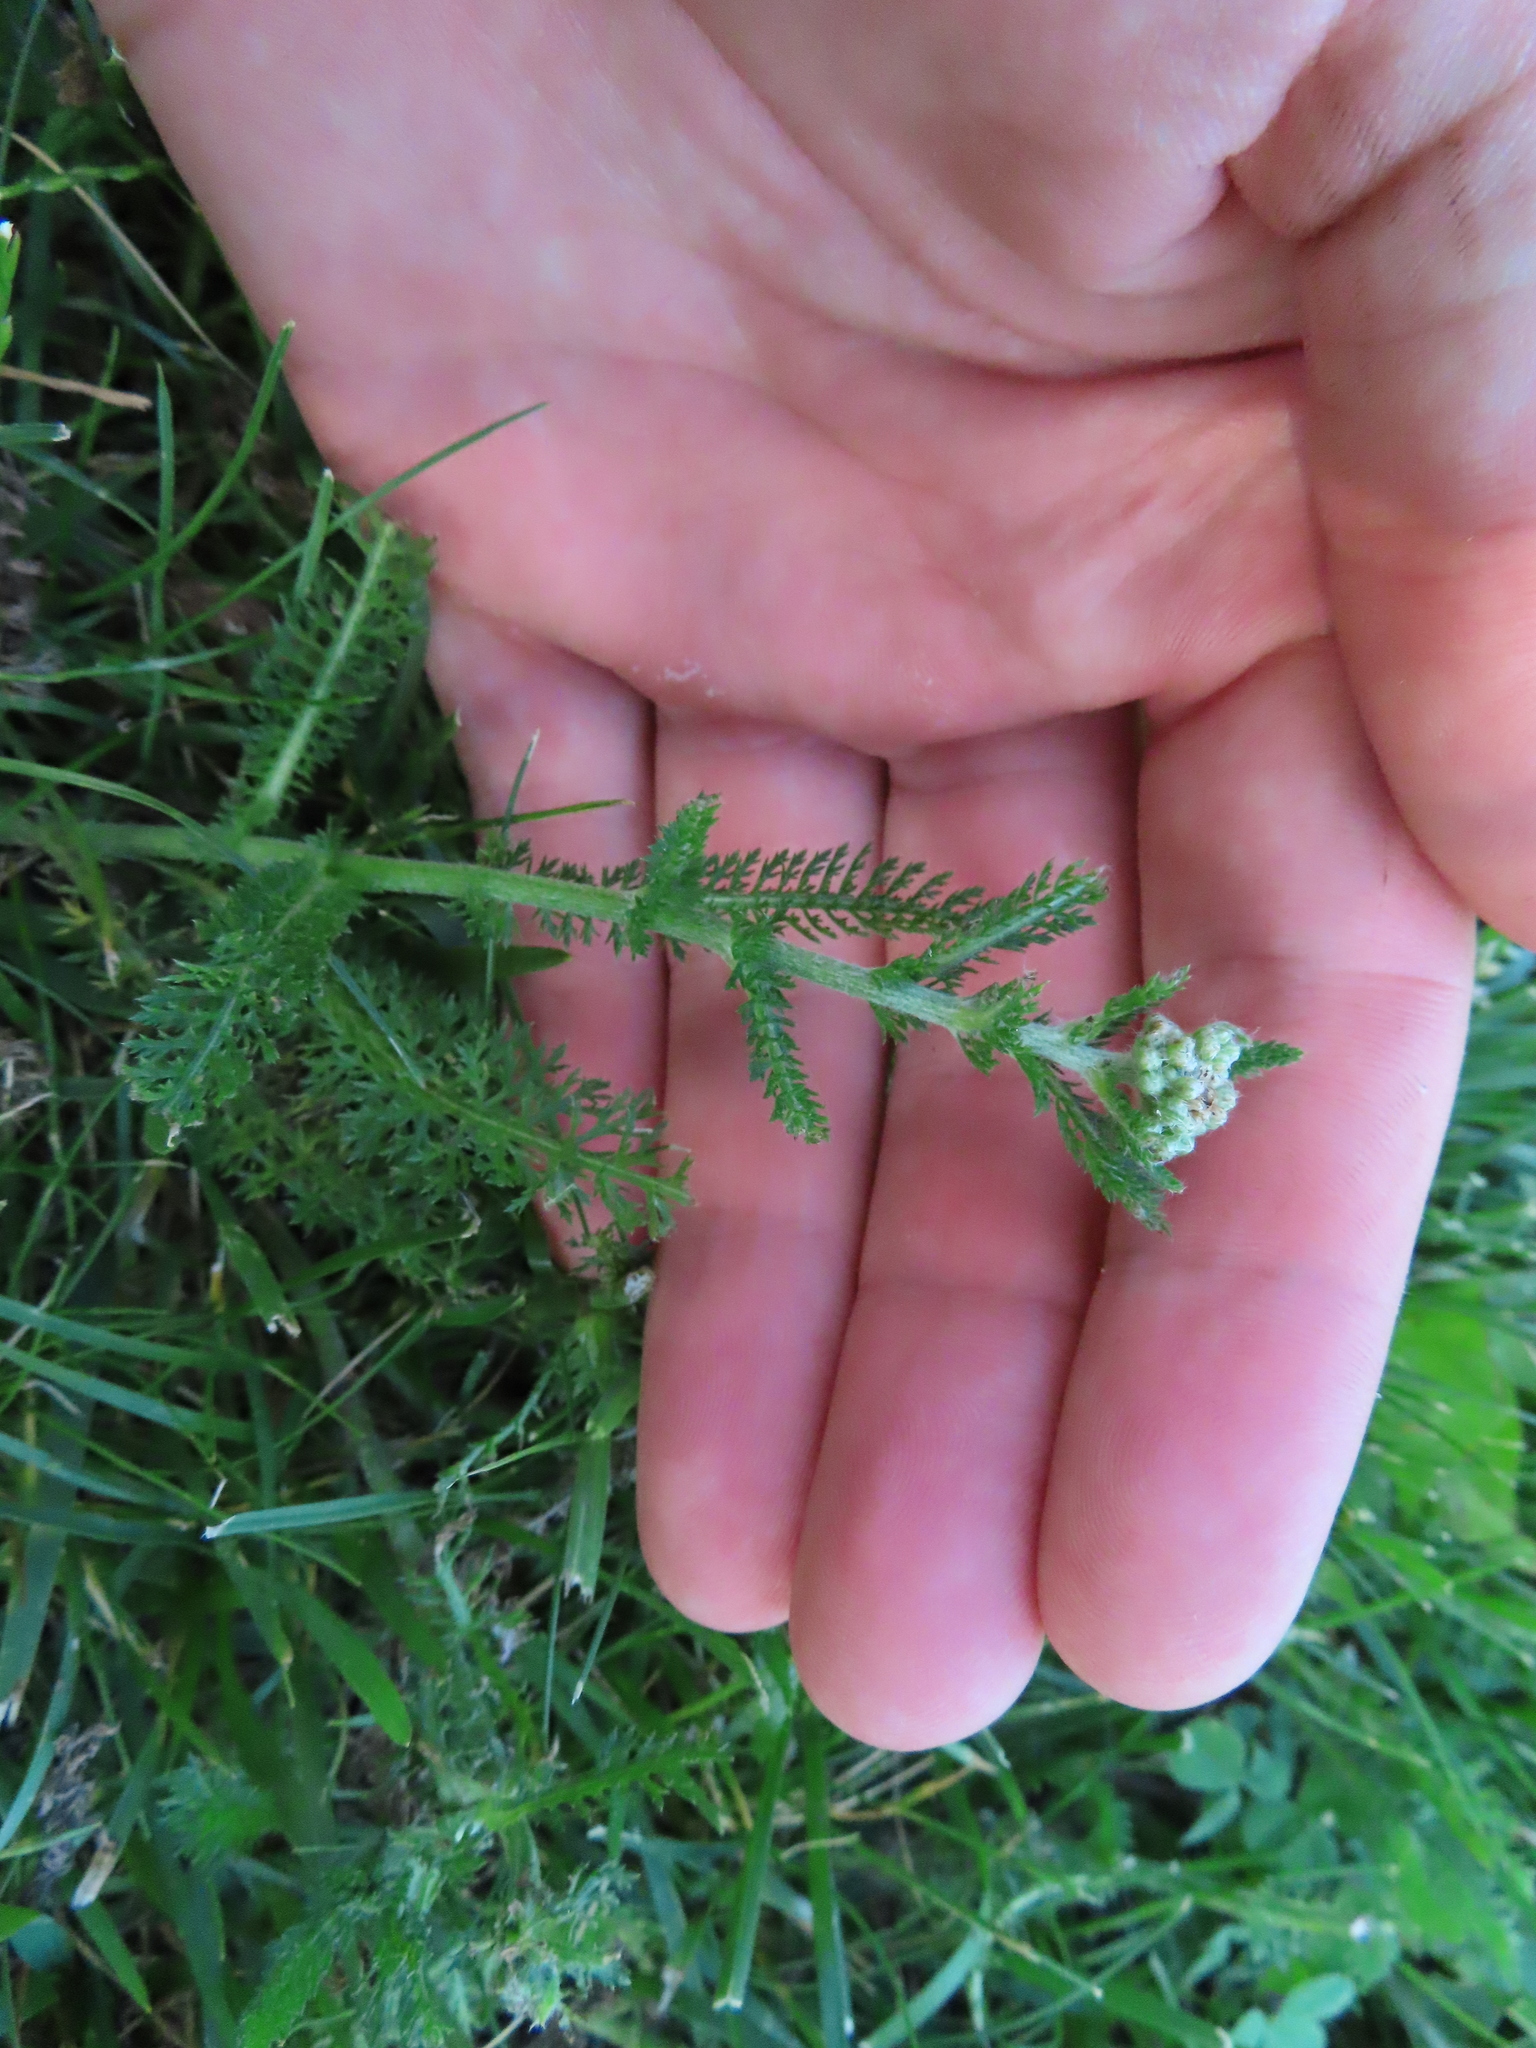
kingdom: Plantae
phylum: Tracheophyta
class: Magnoliopsida
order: Asterales
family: Asteraceae
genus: Achillea
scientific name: Achillea millefolium
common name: Yarrow
